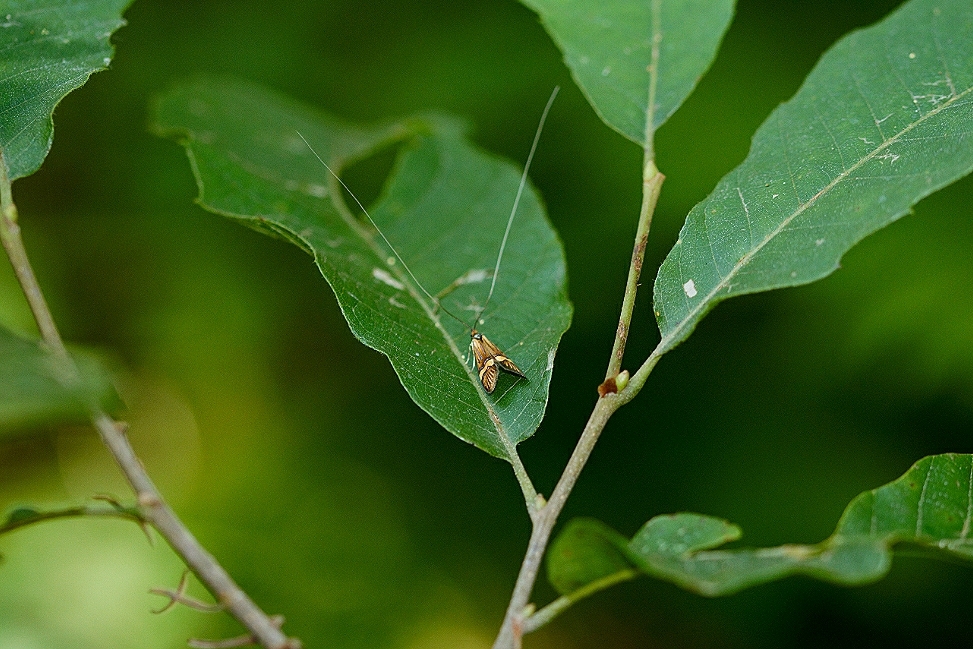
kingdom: Animalia
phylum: Arthropoda
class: Insecta
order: Lepidoptera
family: Adelidae
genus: Nemophora
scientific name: Nemophora
